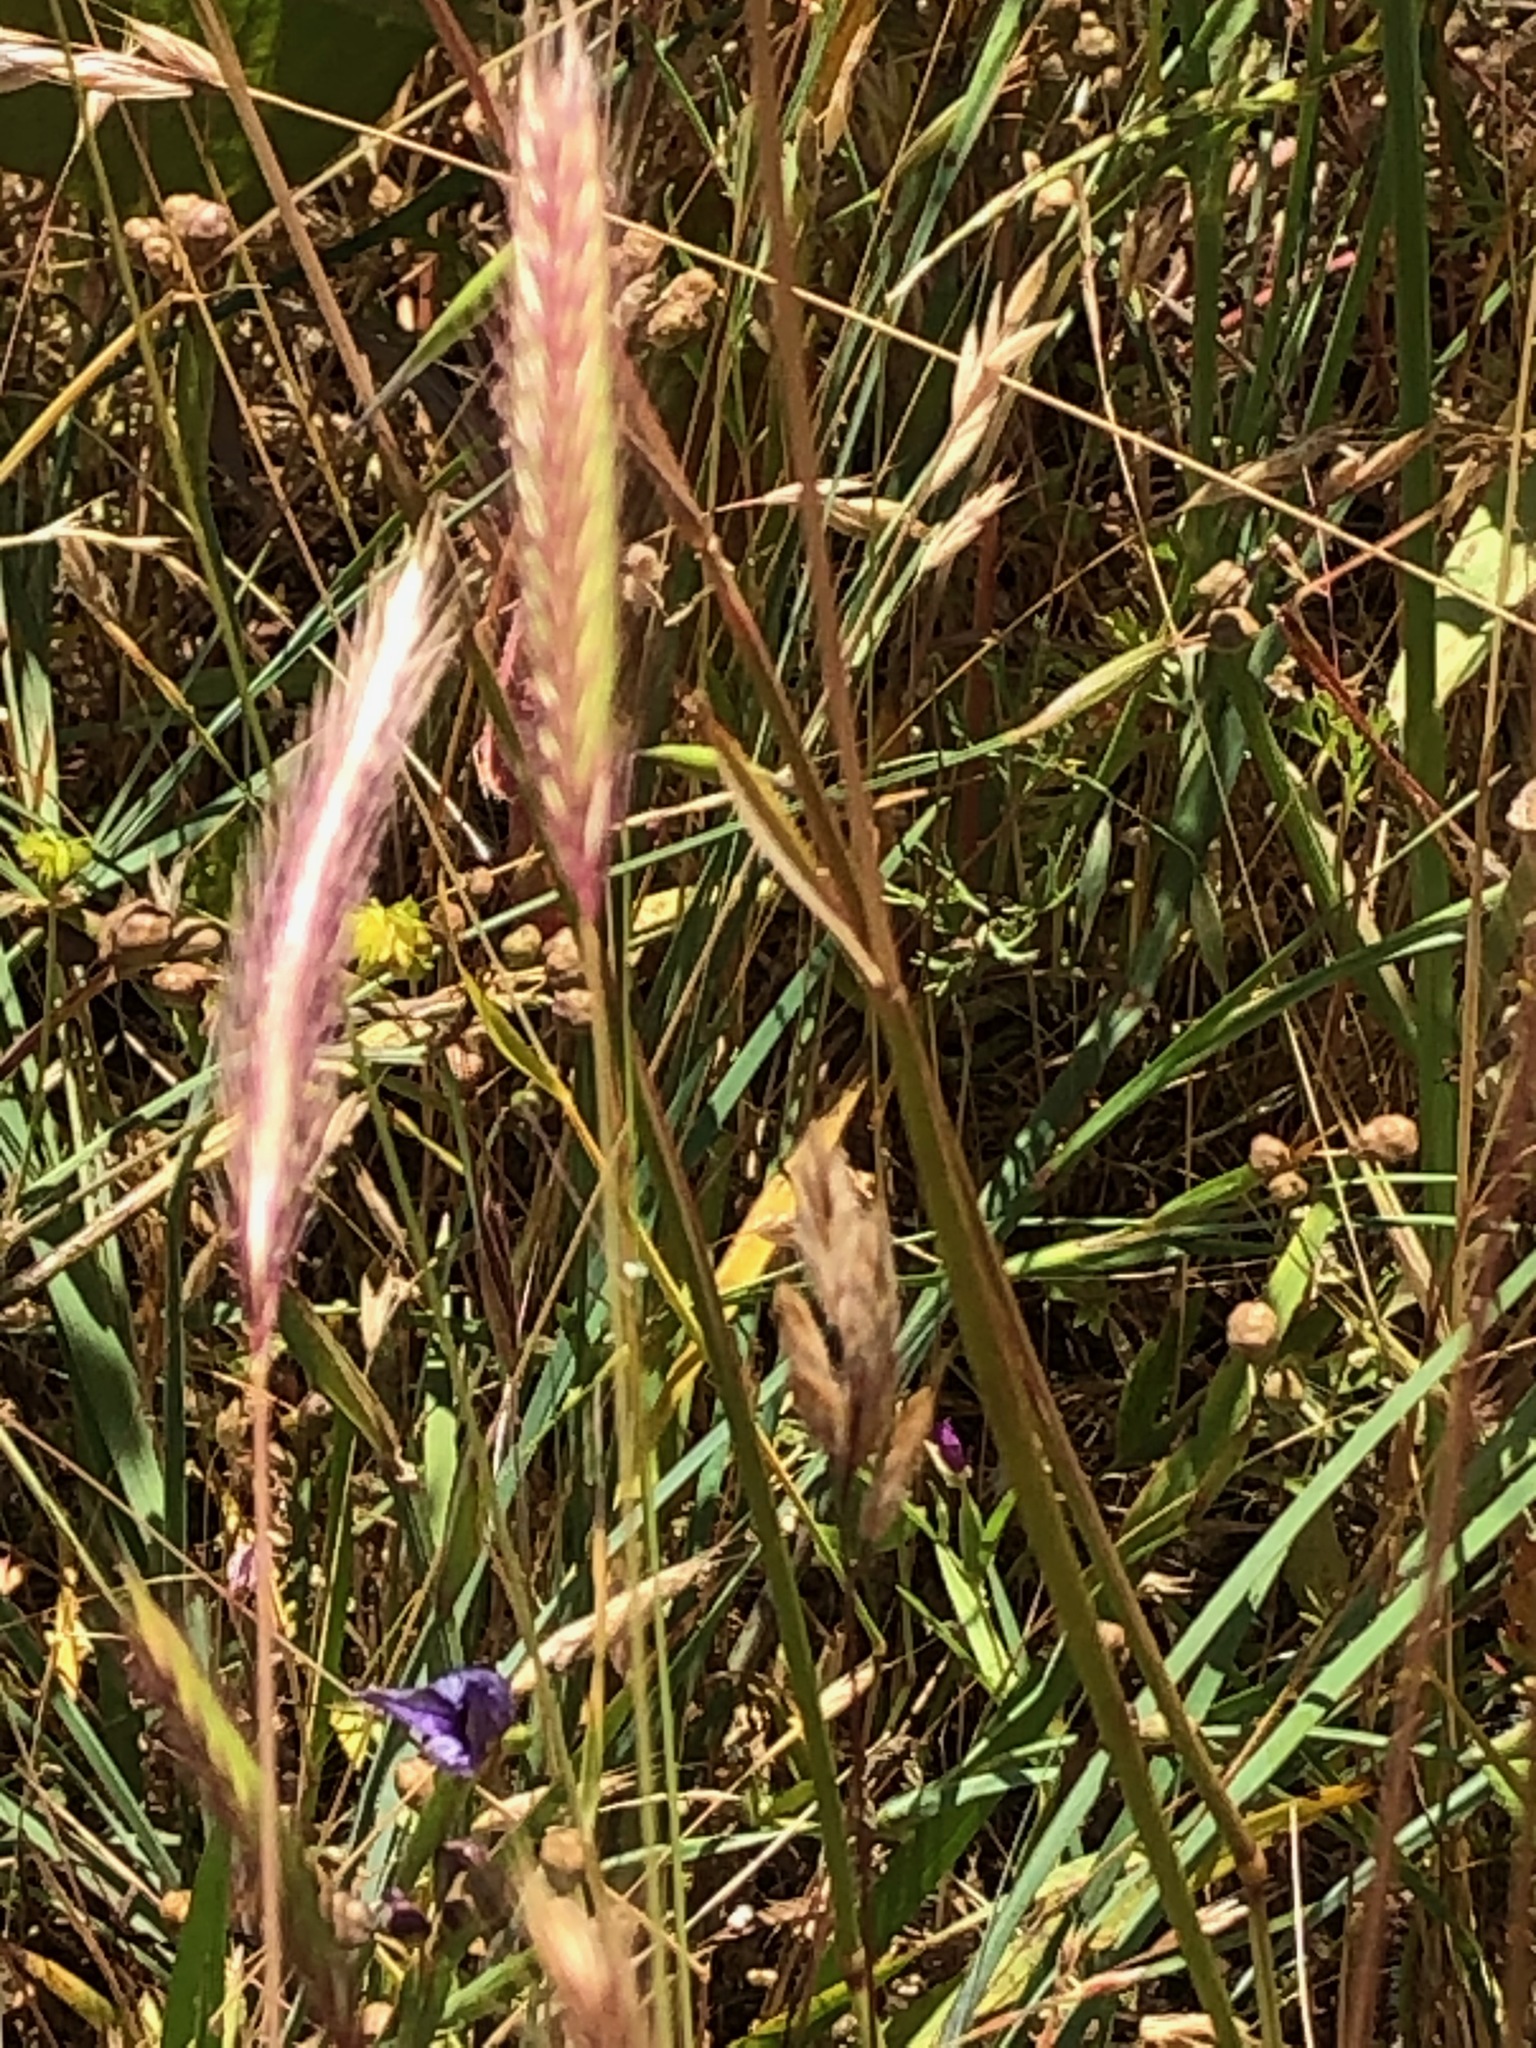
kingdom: Plantae
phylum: Tracheophyta
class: Liliopsida
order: Poales
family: Poaceae
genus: Hordeum
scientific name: Hordeum brachyantherum
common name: Meadow barley
